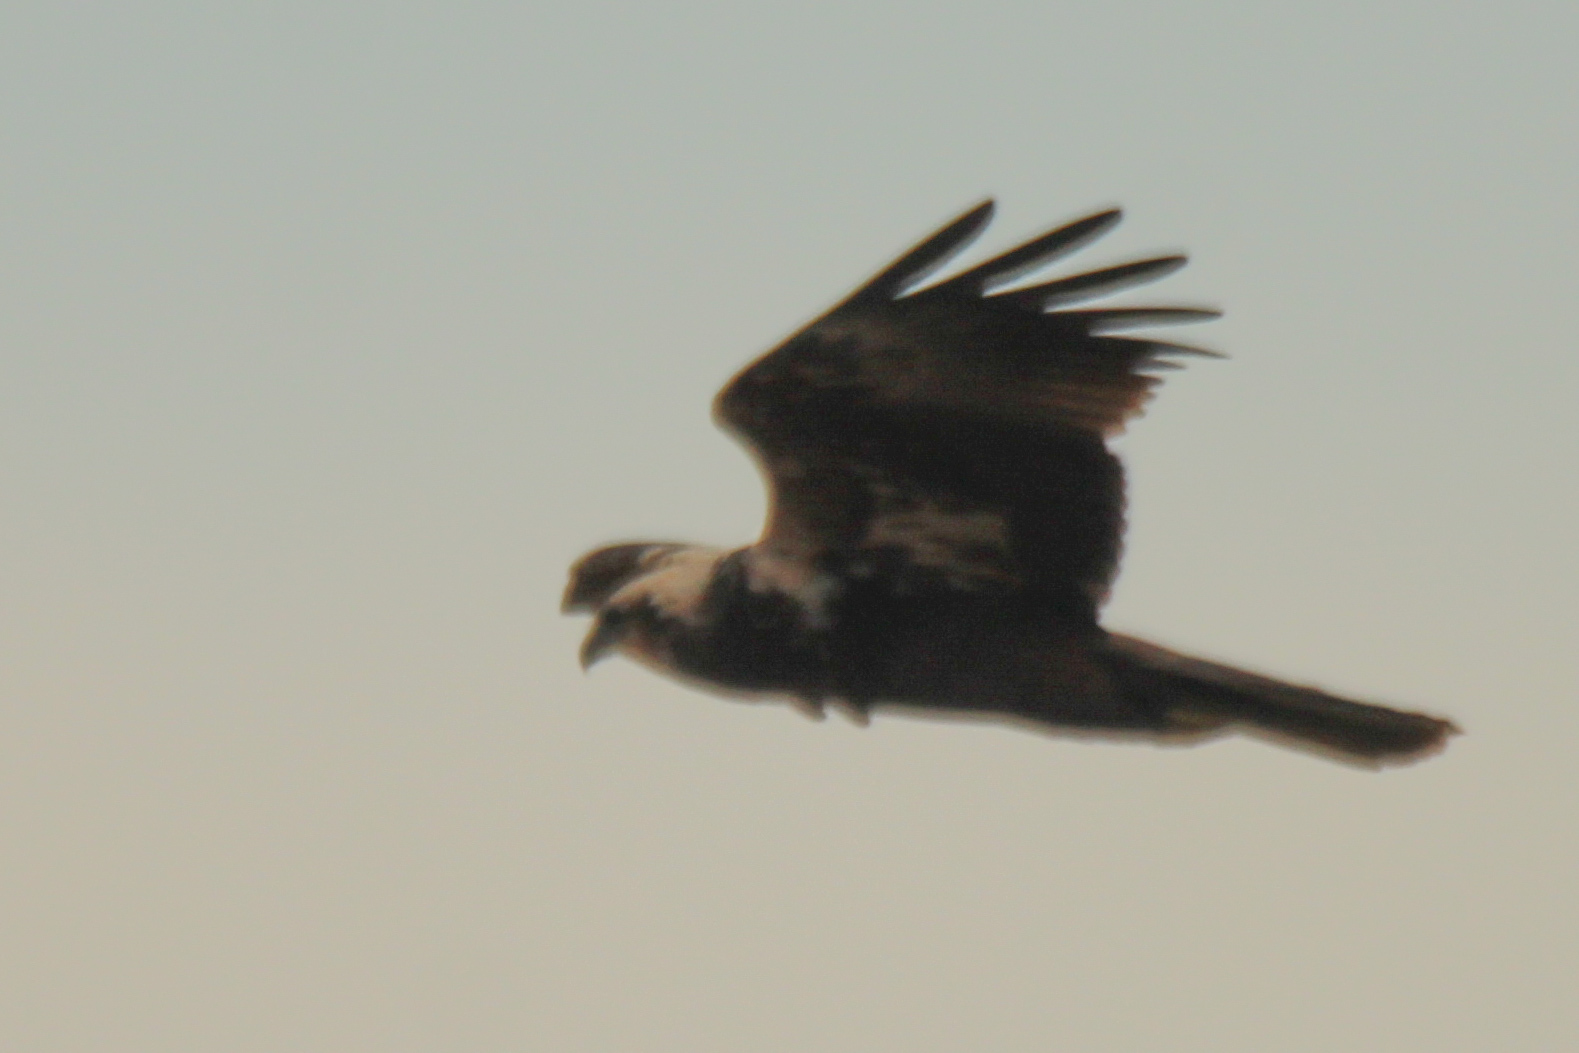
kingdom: Animalia
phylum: Chordata
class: Aves
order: Accipitriformes
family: Accipitridae
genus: Circus
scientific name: Circus aeruginosus
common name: Western marsh harrier
